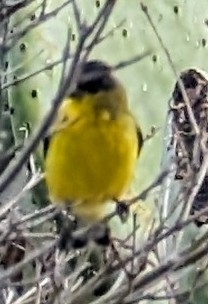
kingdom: Animalia
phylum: Chordata
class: Aves
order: Passeriformes
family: Fringillidae
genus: Spinus
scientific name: Spinus psaltria
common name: Lesser goldfinch
